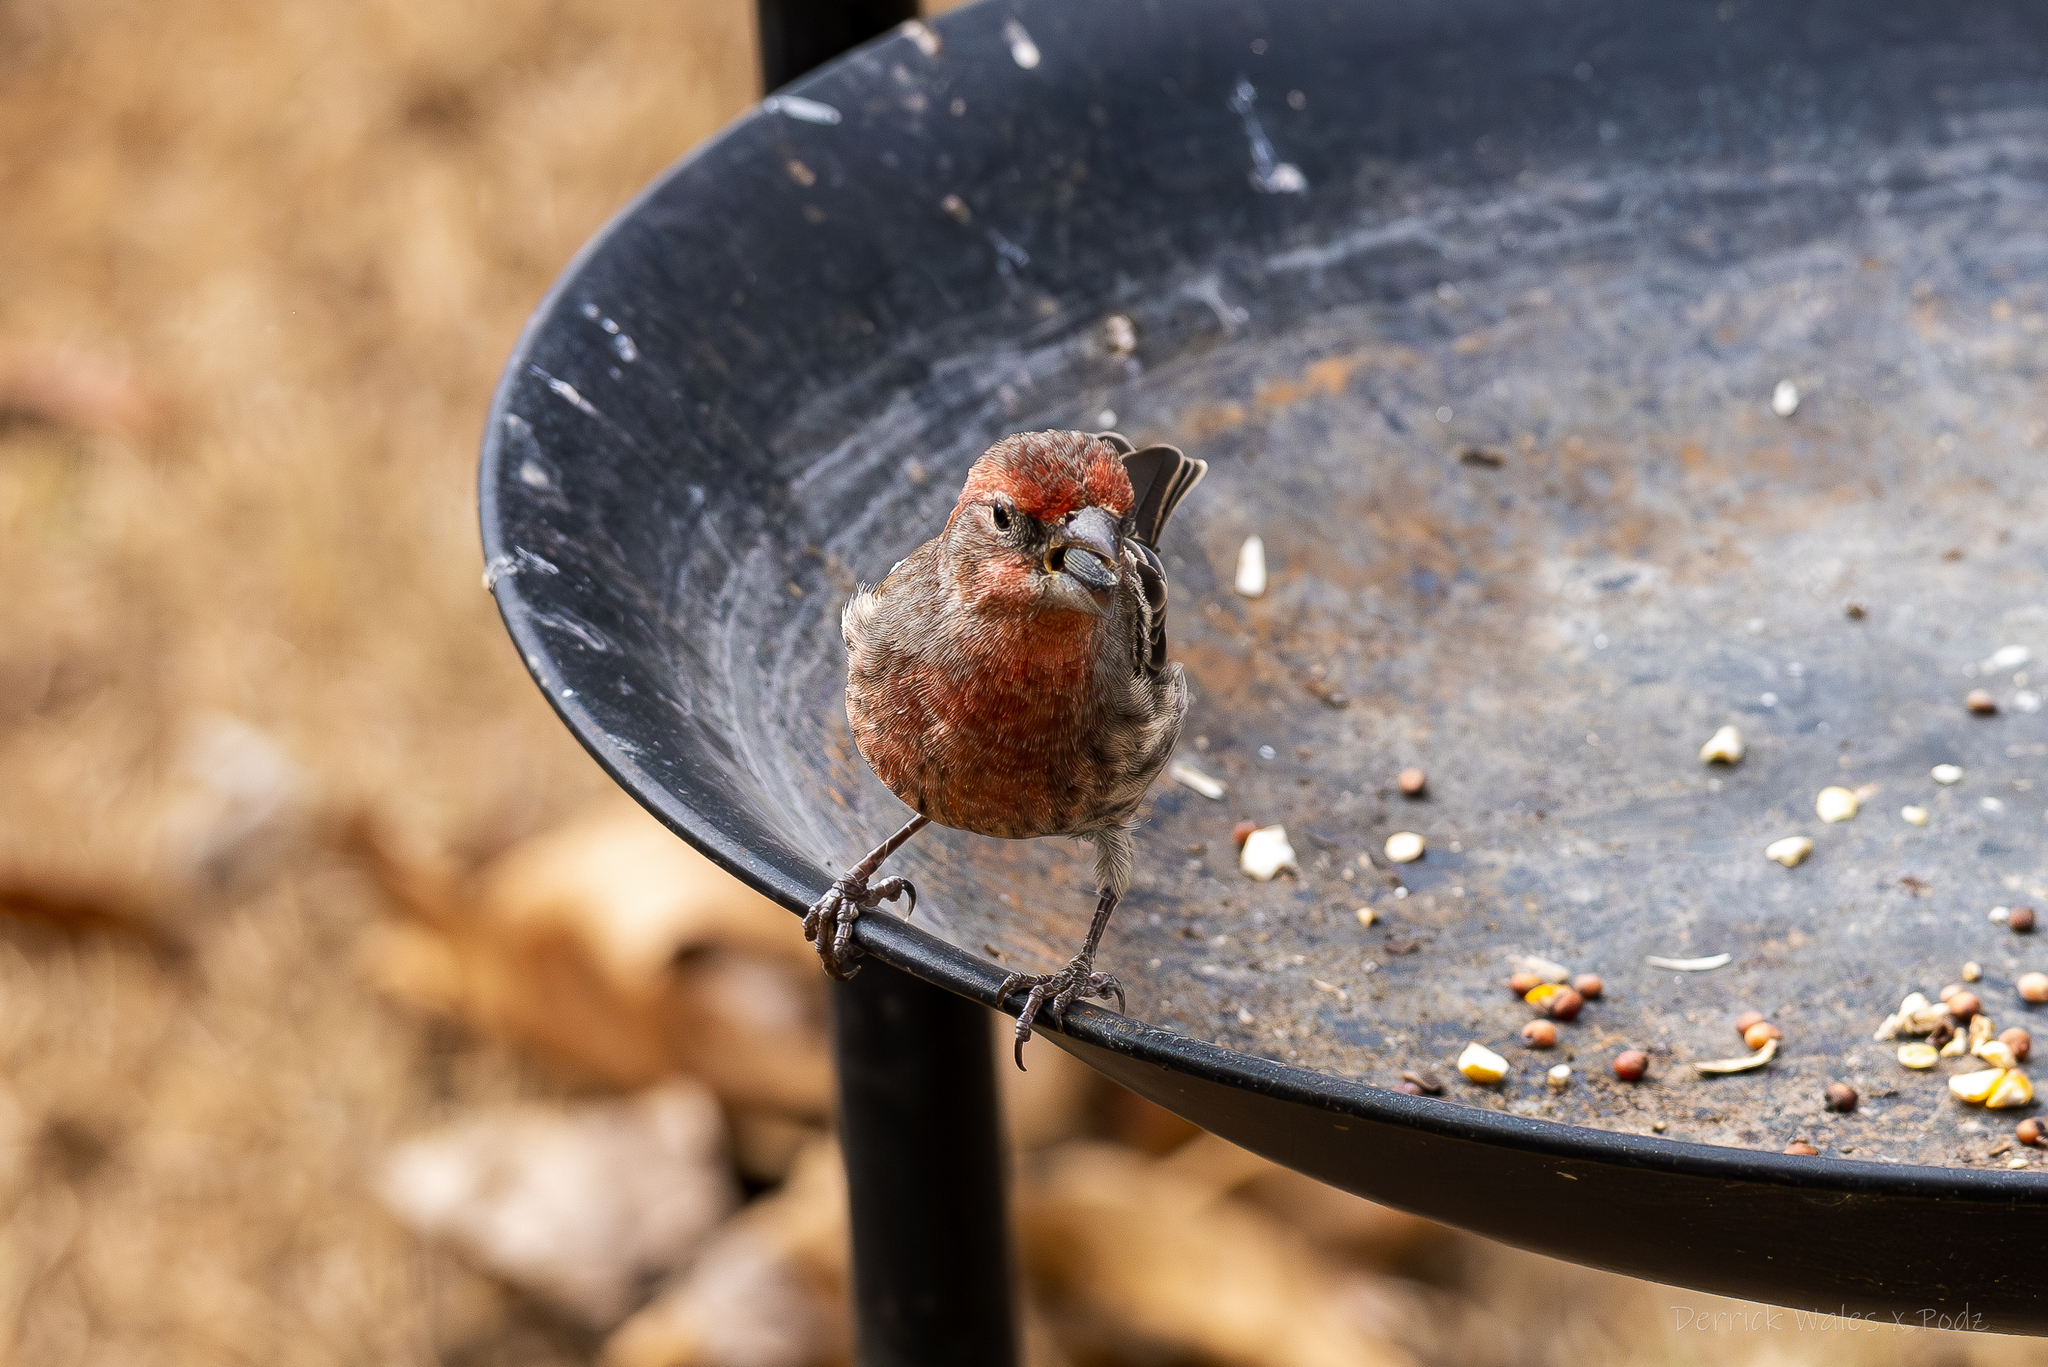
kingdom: Animalia
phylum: Chordata
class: Aves
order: Passeriformes
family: Fringillidae
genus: Haemorhous
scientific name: Haemorhous mexicanus
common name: House finch
